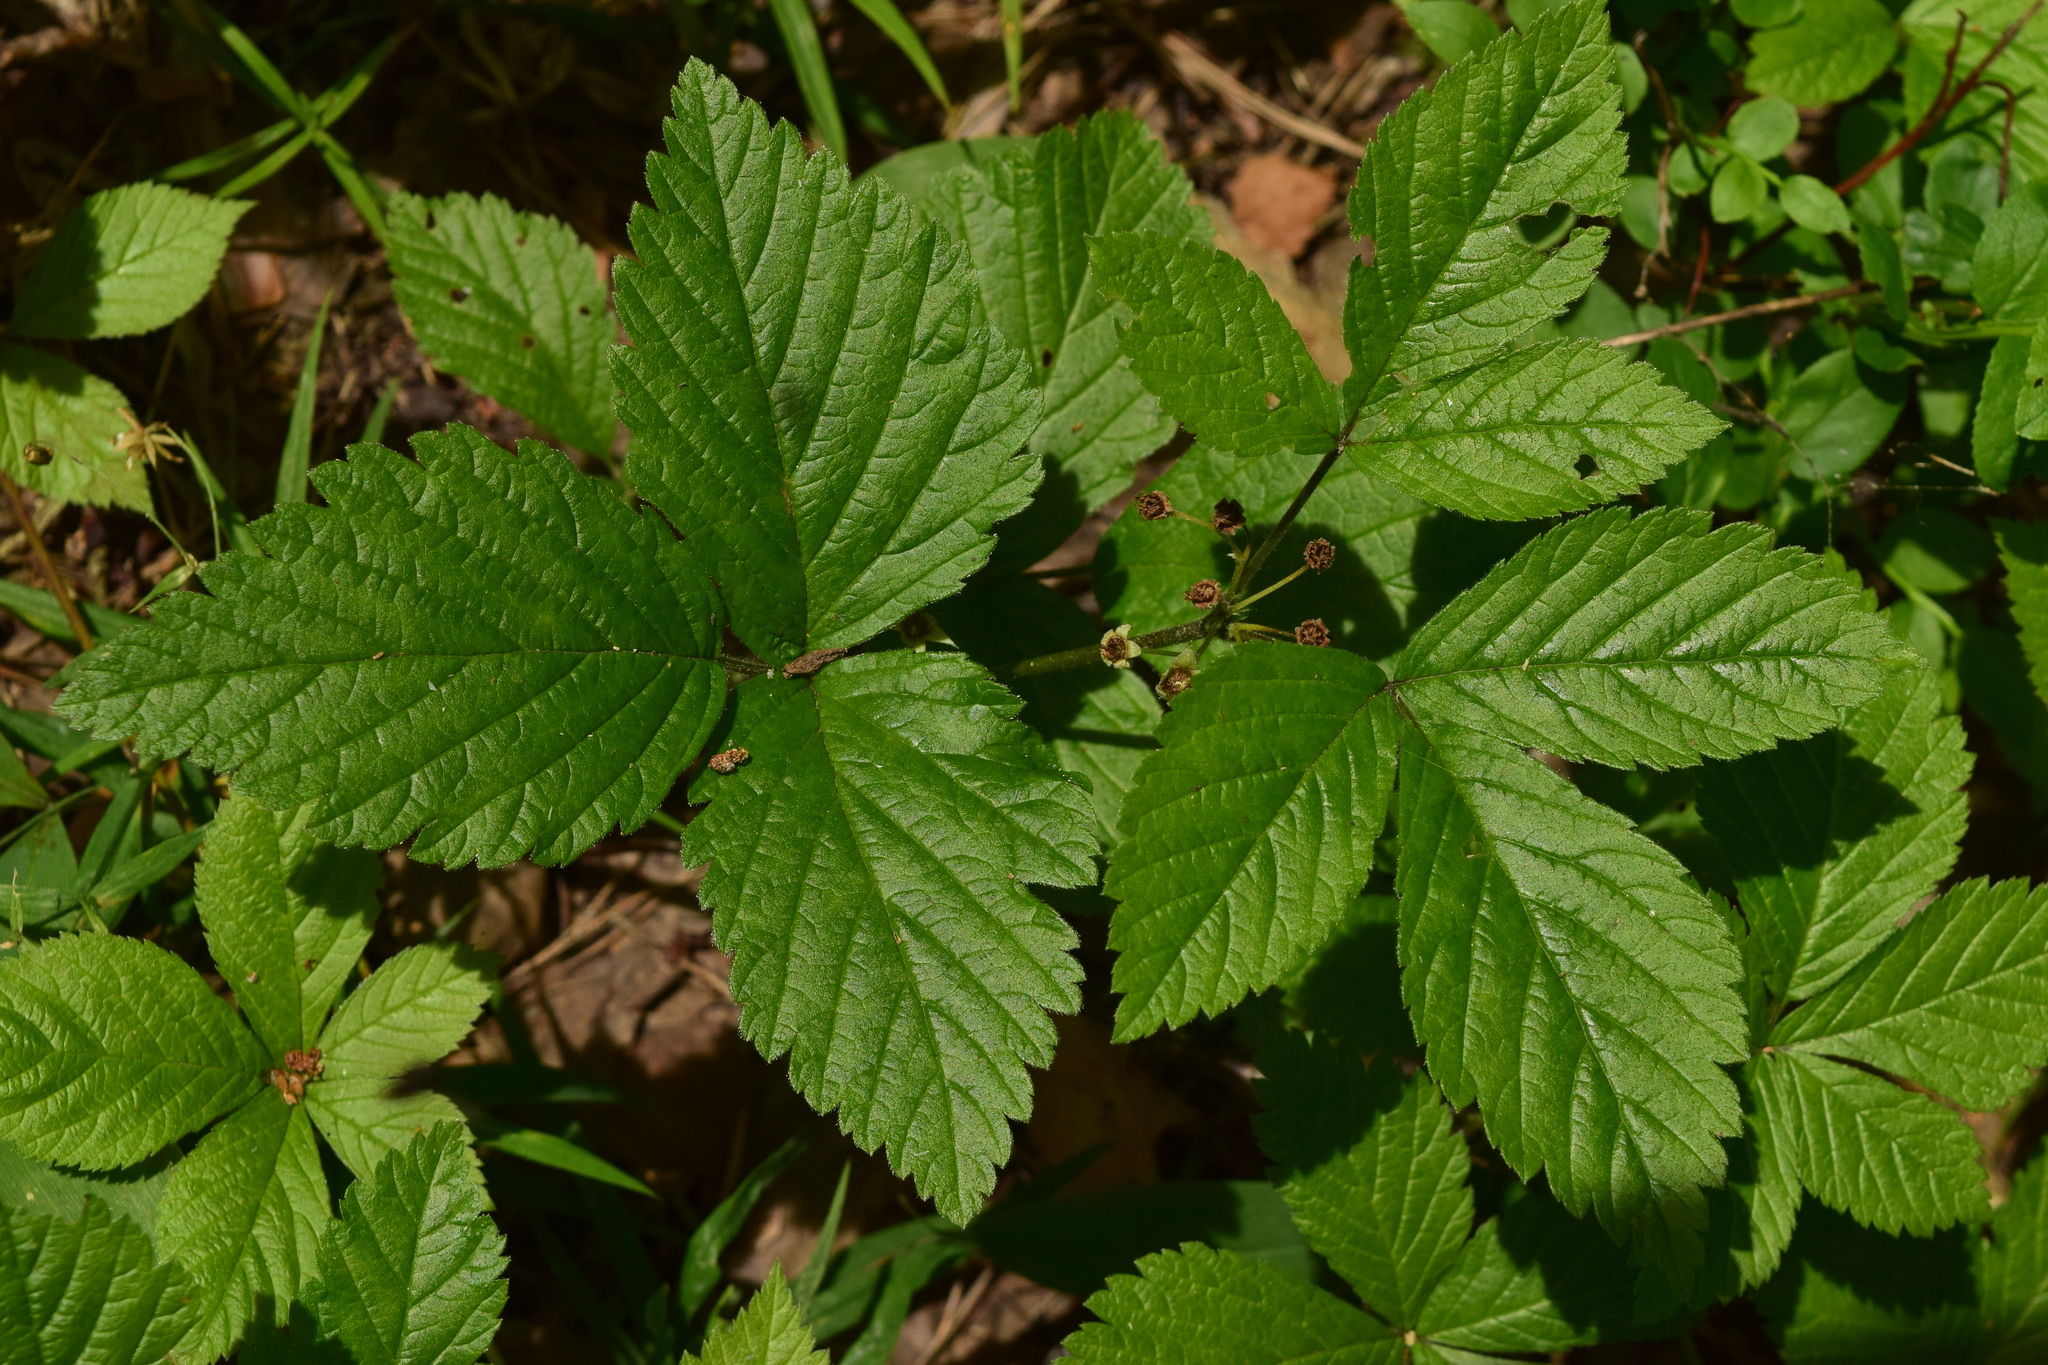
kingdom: Plantae
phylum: Tracheophyta
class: Magnoliopsida
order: Rosales
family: Rosaceae
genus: Rubus
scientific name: Rubus saxatilis
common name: Stone bramble
